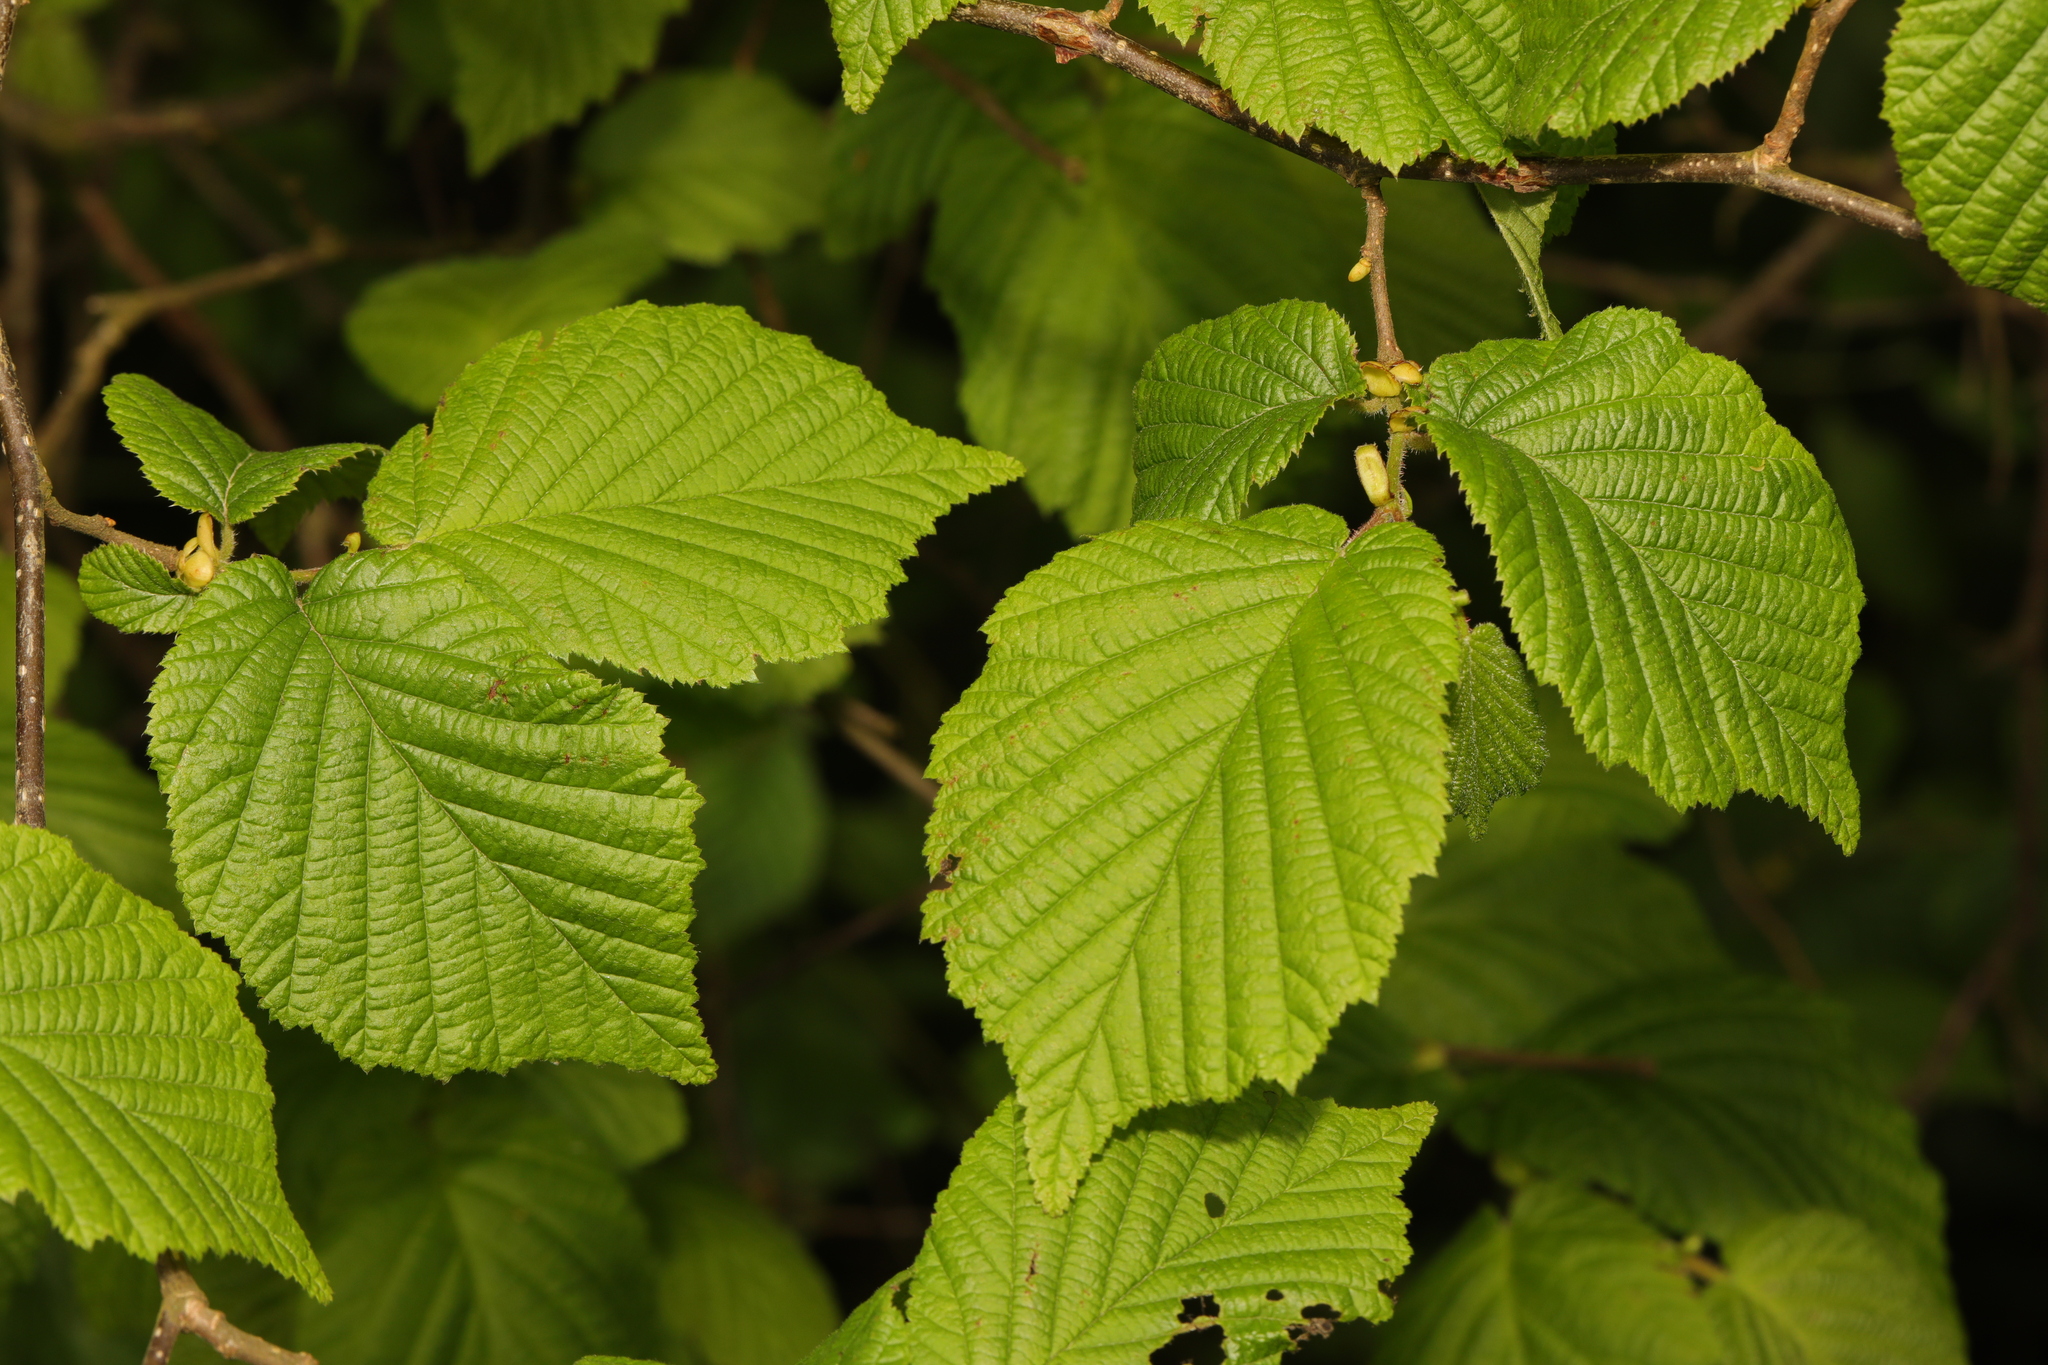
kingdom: Plantae
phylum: Tracheophyta
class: Magnoliopsida
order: Fagales
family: Betulaceae
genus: Corylus
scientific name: Corylus avellana
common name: European hazel
